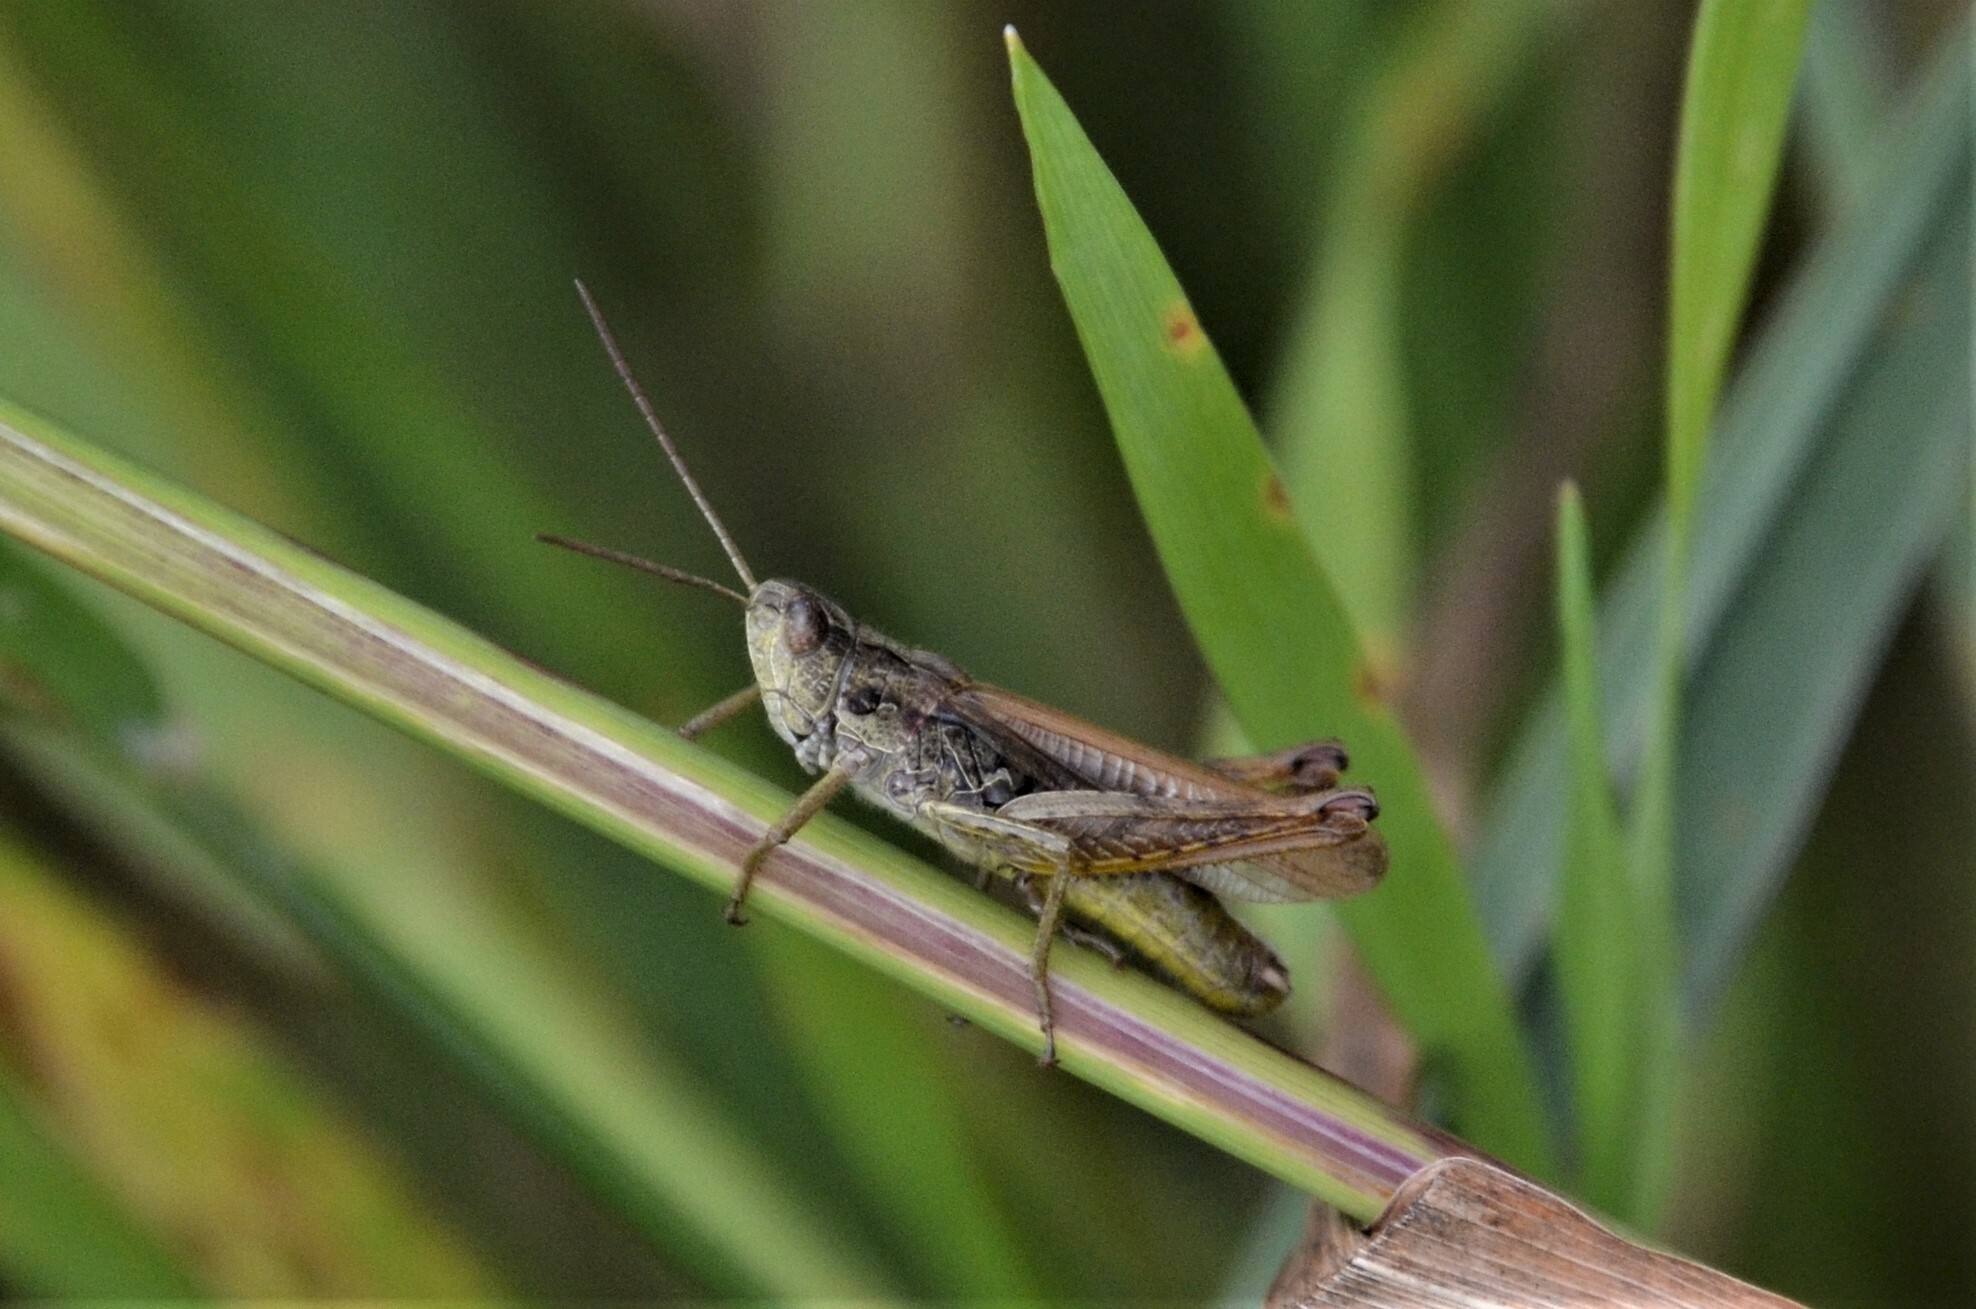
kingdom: Animalia
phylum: Arthropoda
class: Insecta
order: Orthoptera
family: Acrididae
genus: Chorthippus
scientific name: Chorthippus apricarius
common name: Upland field grasshopper
